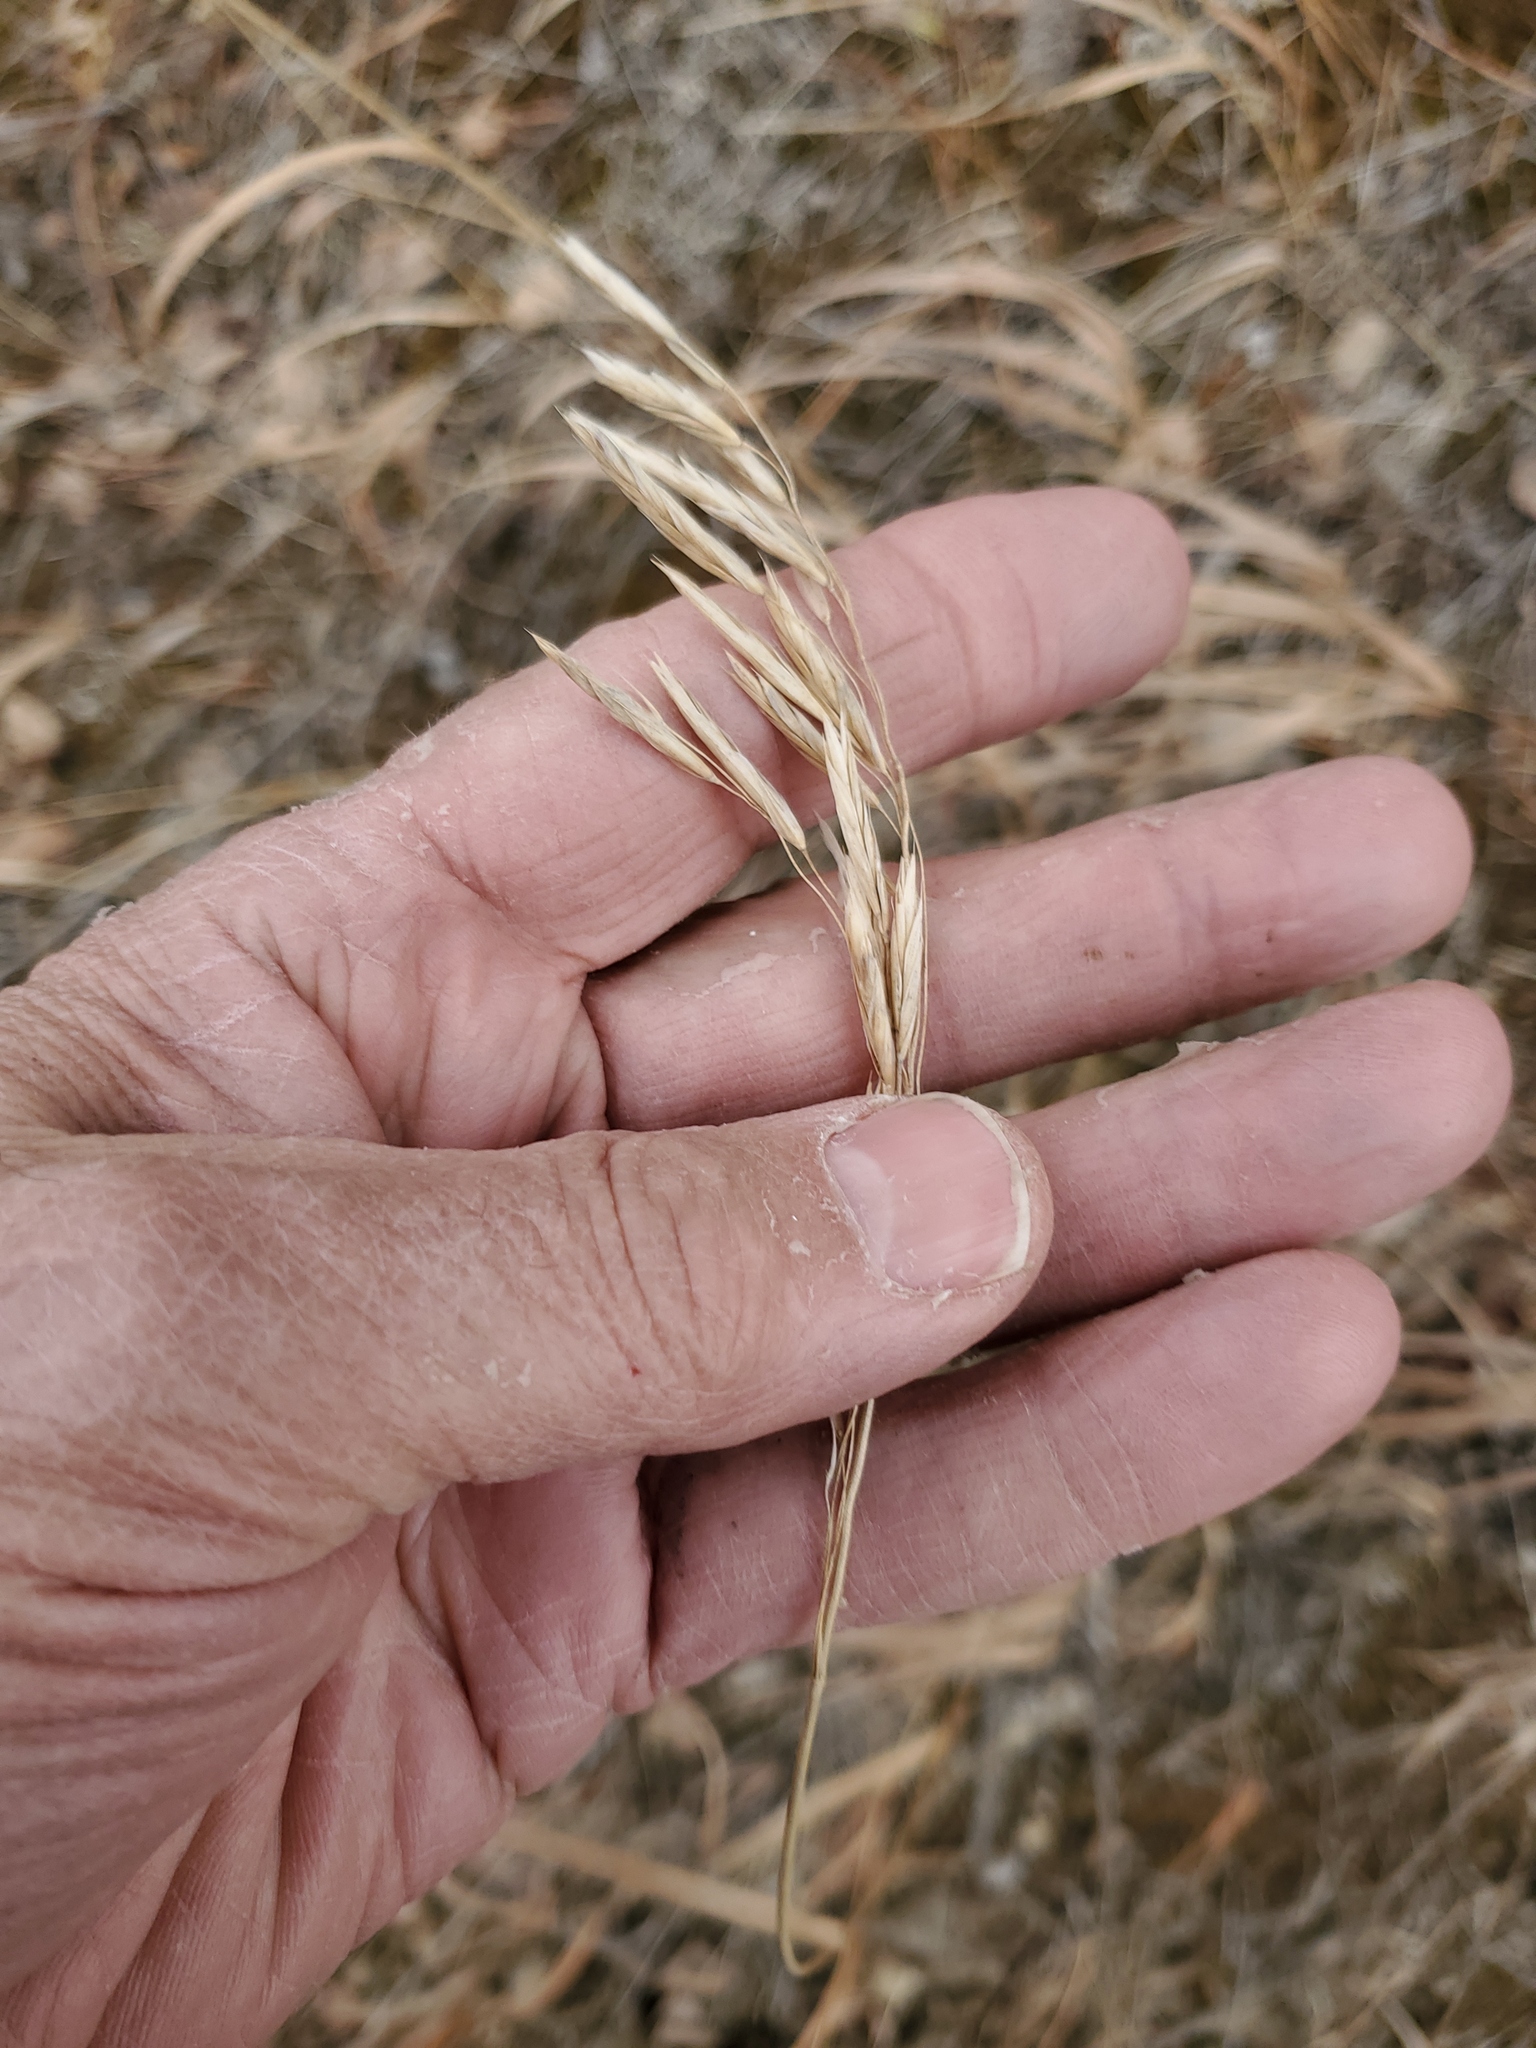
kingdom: Plantae
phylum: Tracheophyta
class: Liliopsida
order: Poales
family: Poaceae
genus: Bromus
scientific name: Bromus inermis
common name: Smooth brome
